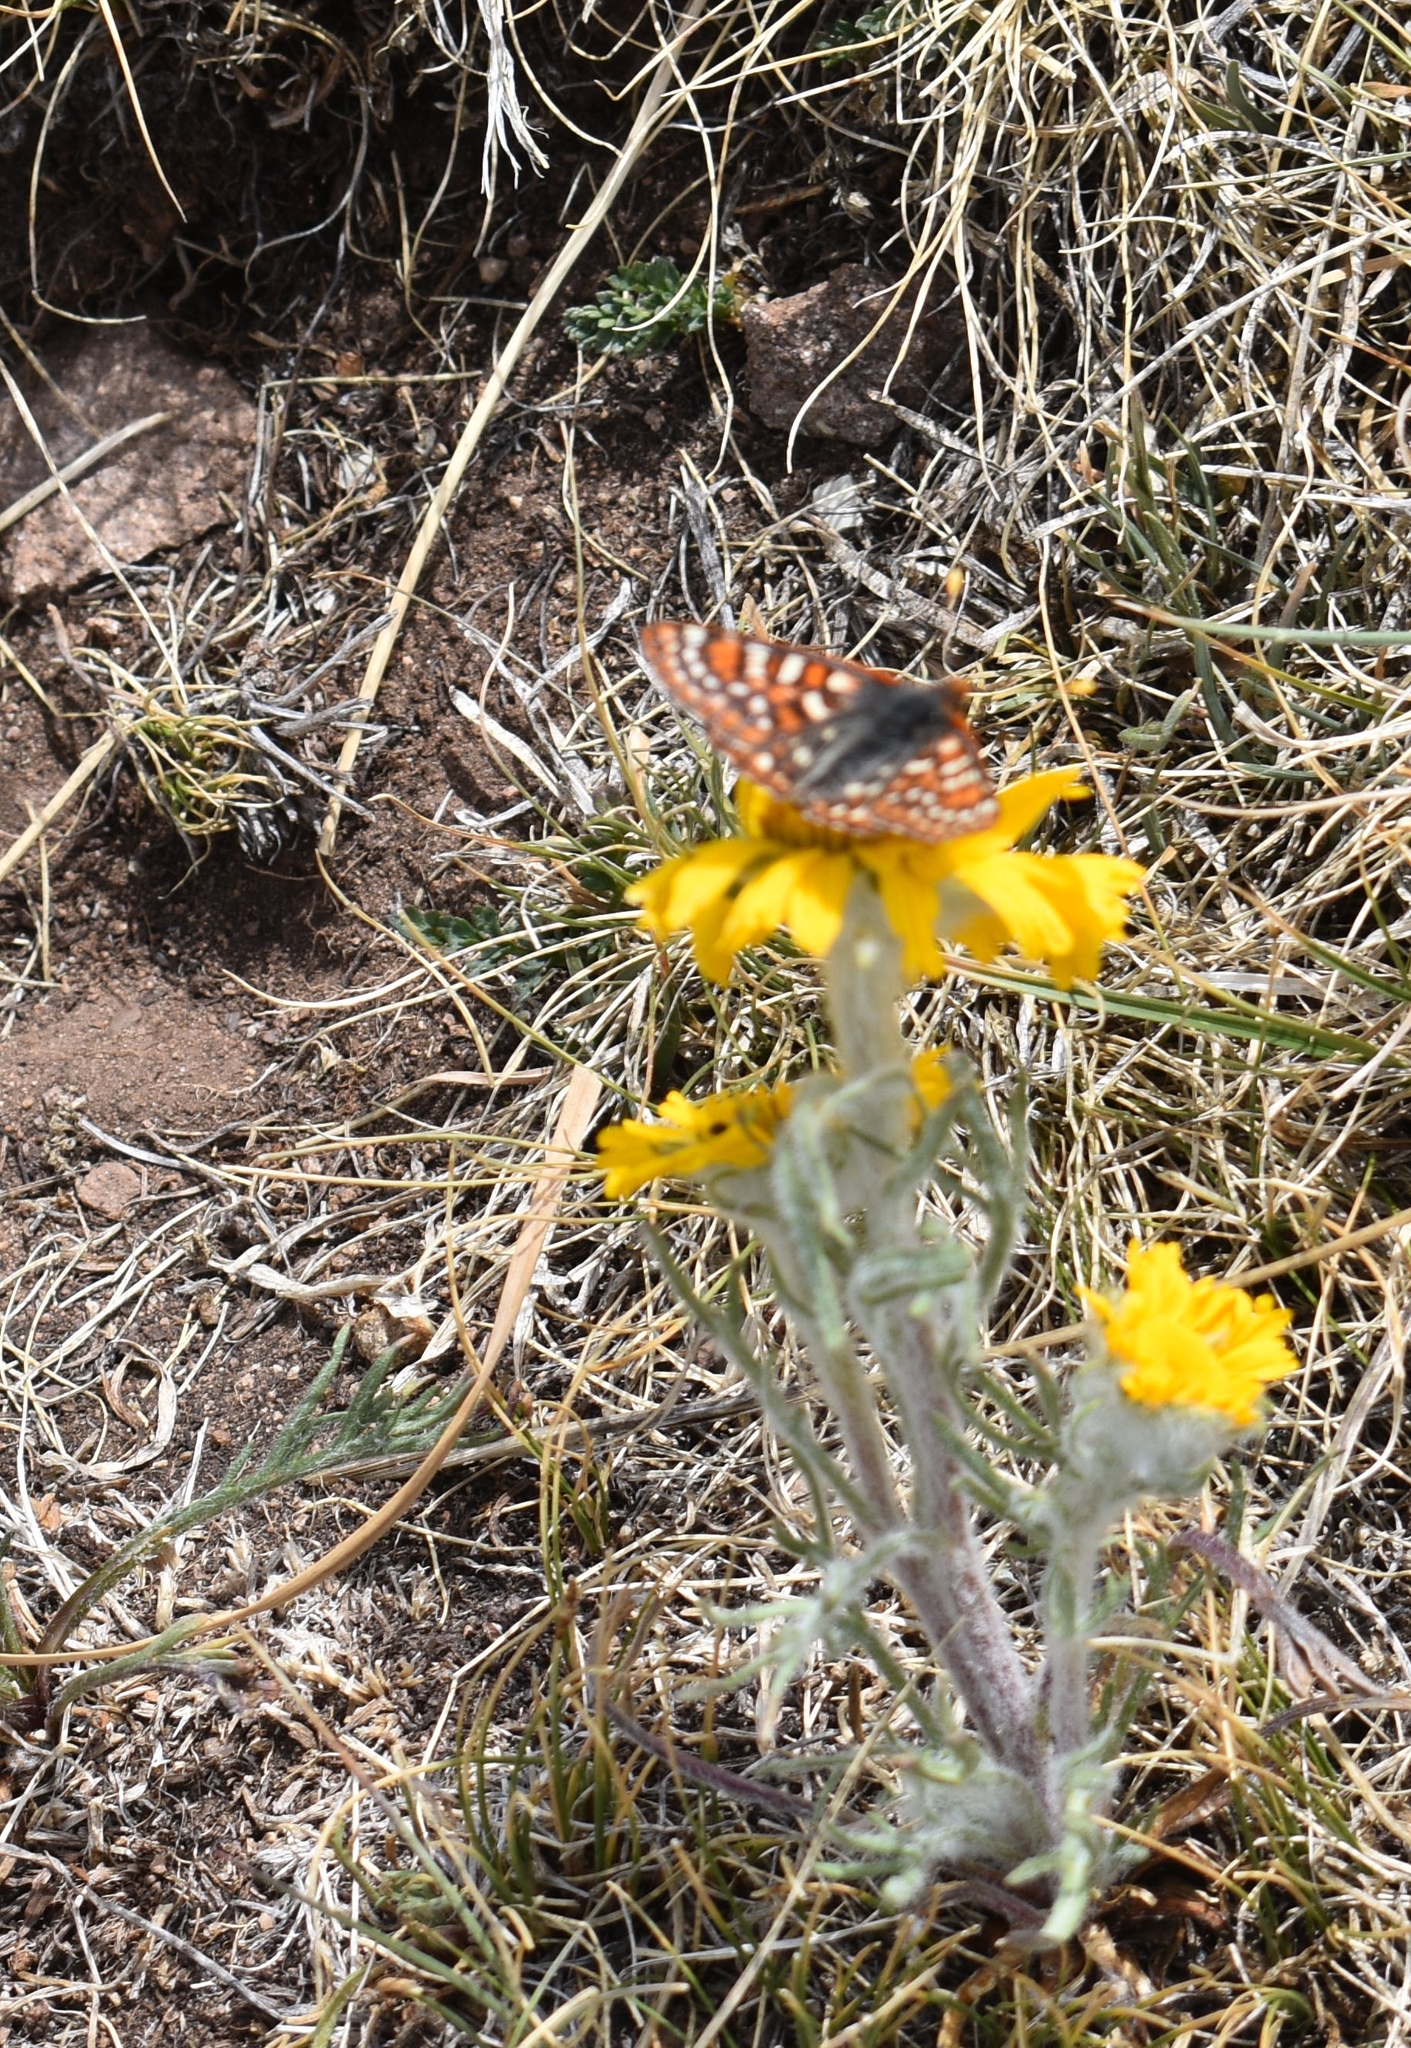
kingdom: Animalia
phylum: Arthropoda
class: Insecta
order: Lepidoptera
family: Nymphalidae
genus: Occidryas
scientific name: Occidryas anicia
